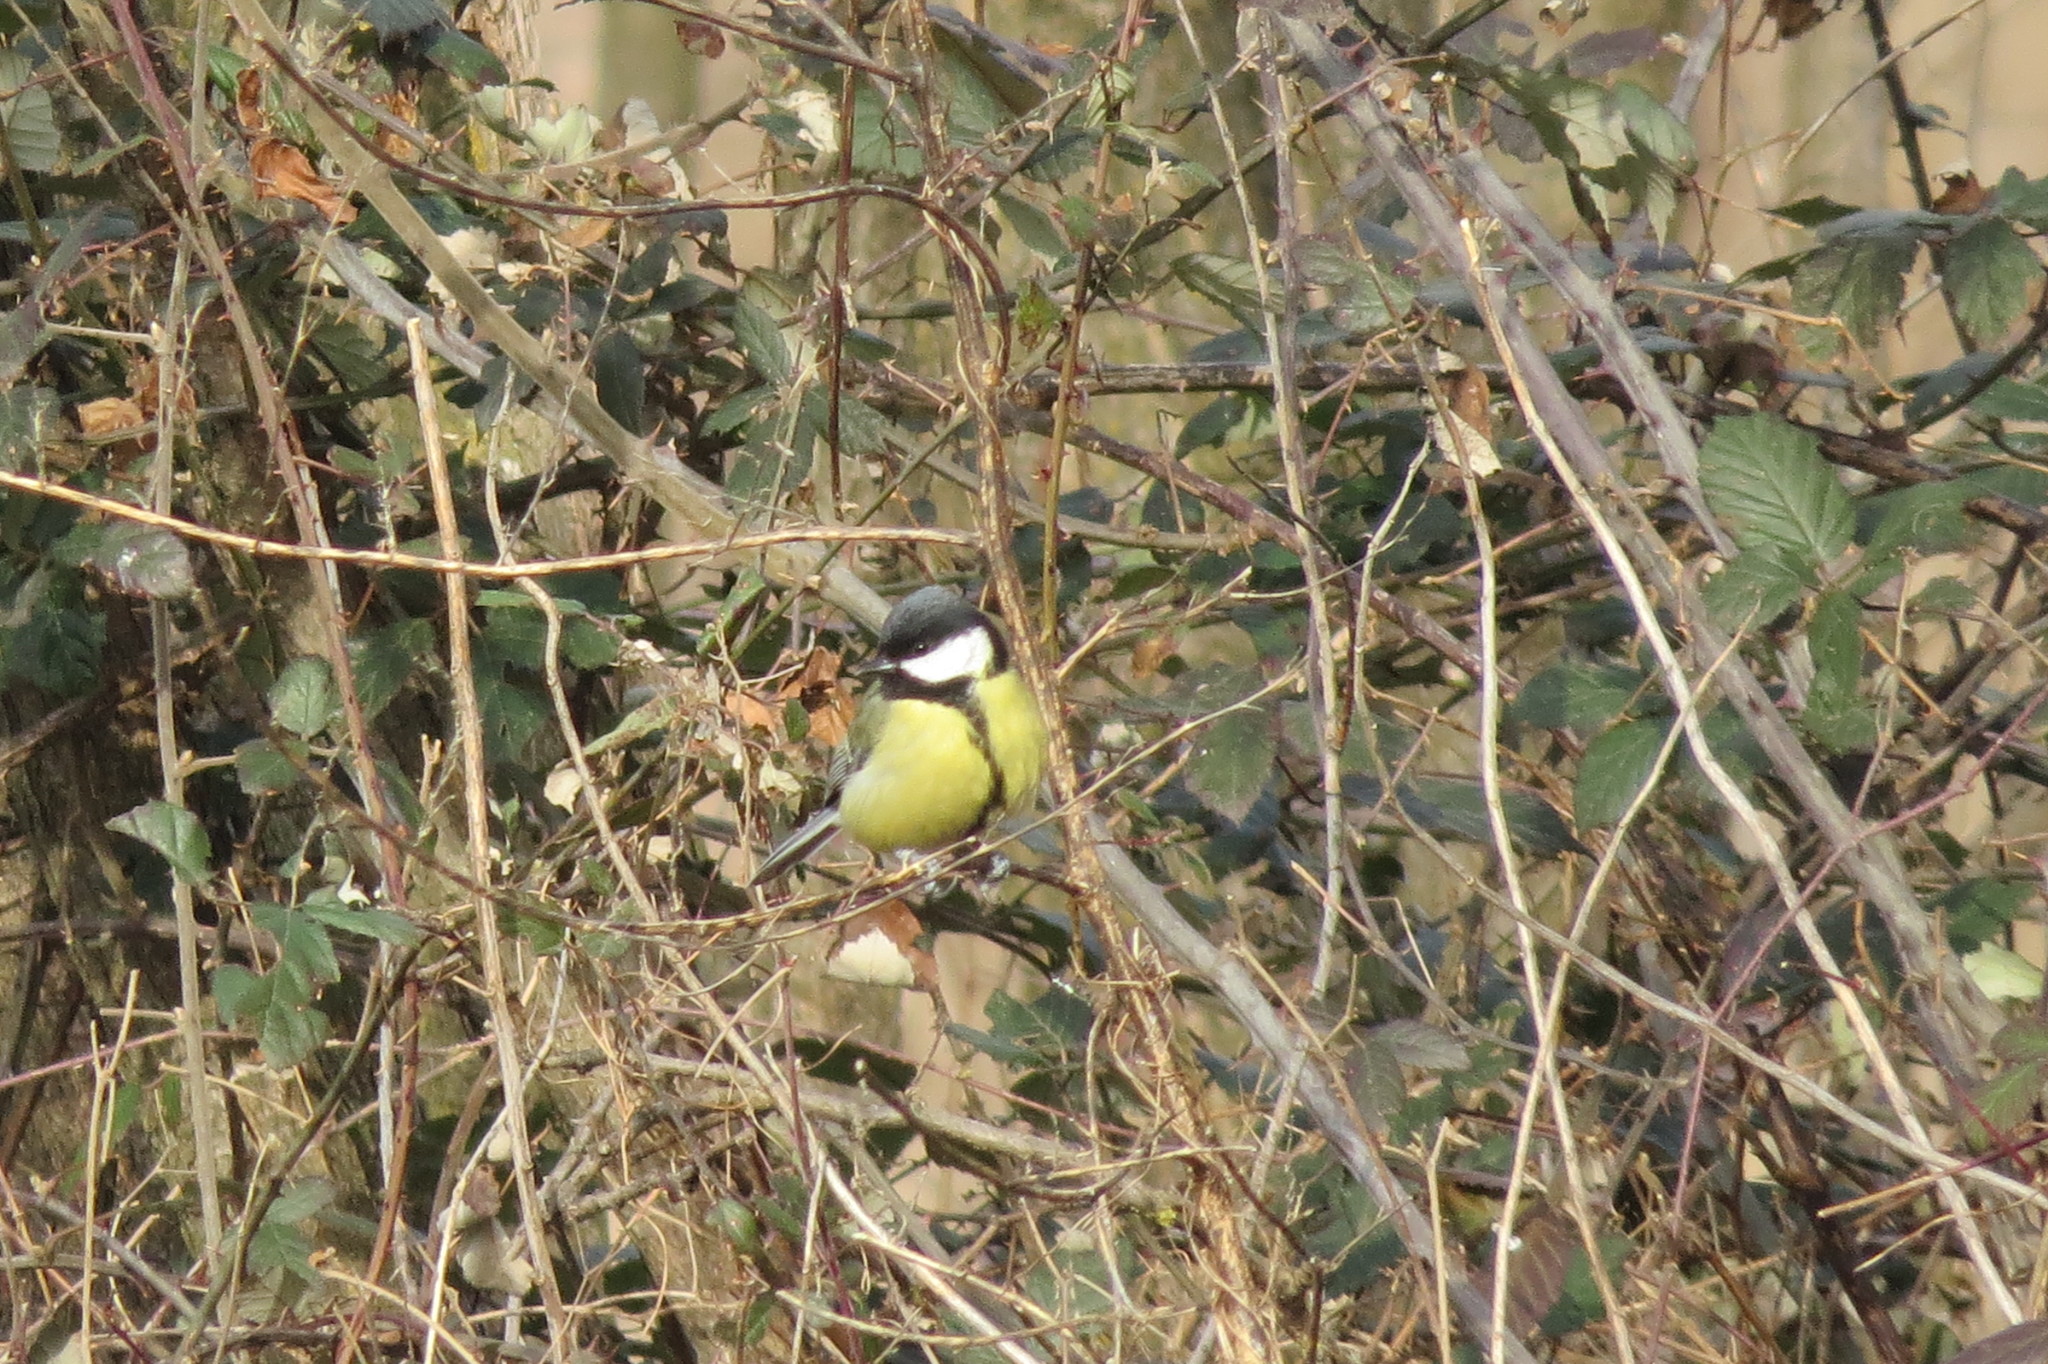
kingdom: Animalia
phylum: Chordata
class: Aves
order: Passeriformes
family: Paridae
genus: Parus
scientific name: Parus major
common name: Great tit
